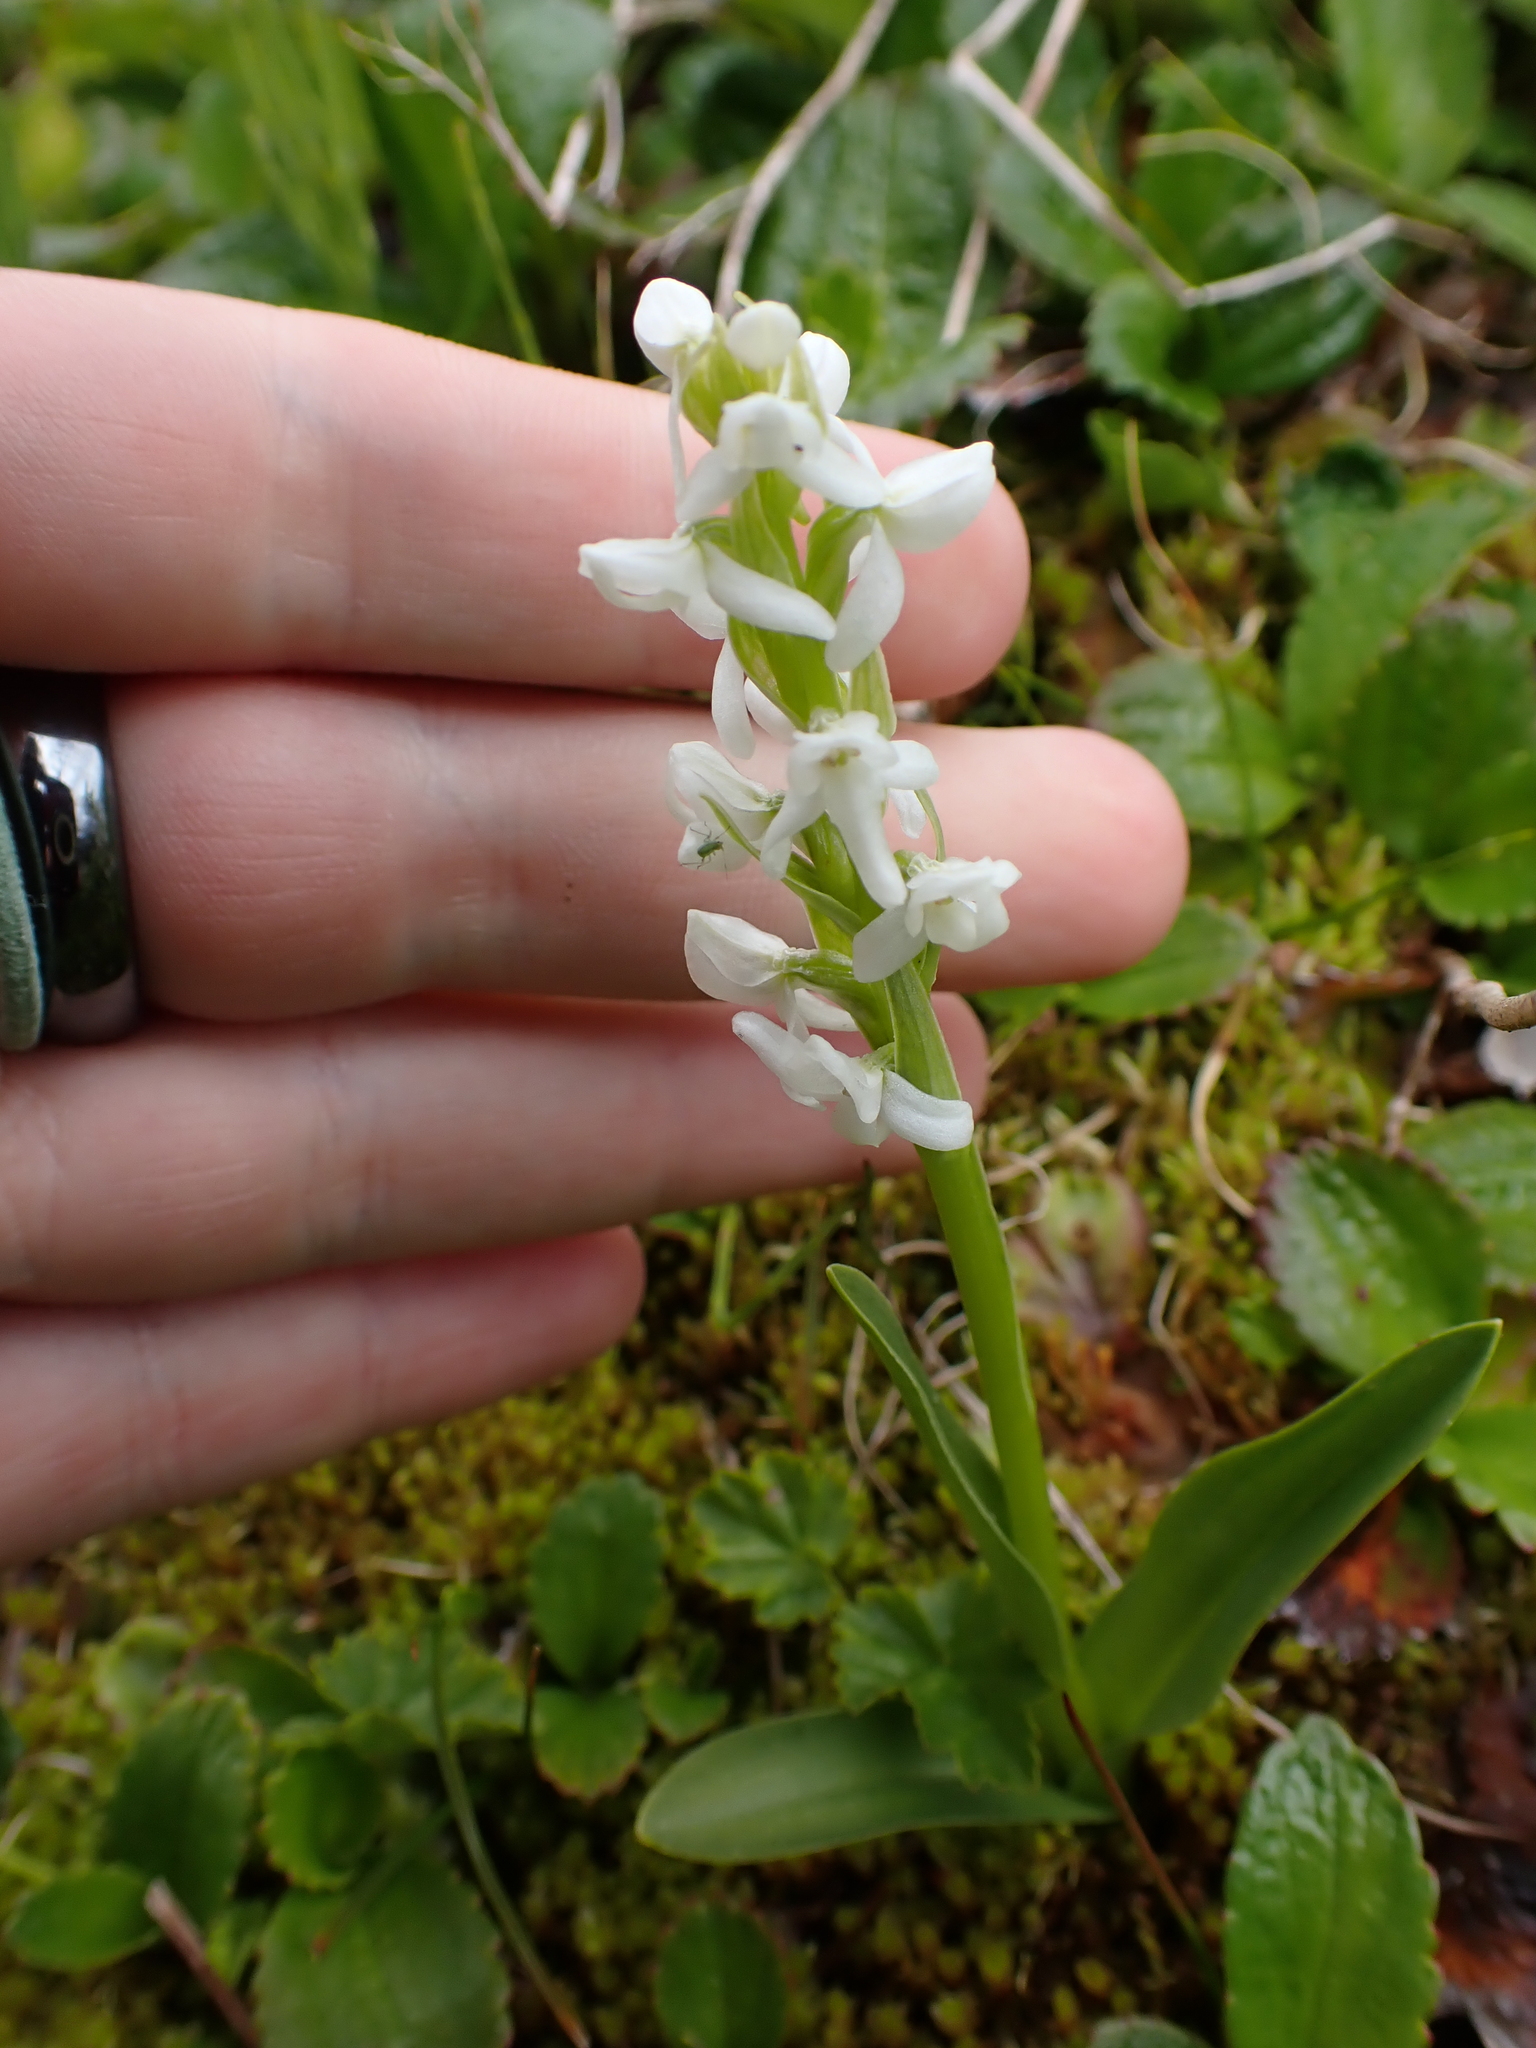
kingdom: Plantae
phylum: Tracheophyta
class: Liliopsida
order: Asparagales
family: Orchidaceae
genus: Platanthera
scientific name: Platanthera dilatata
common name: Bog candles
